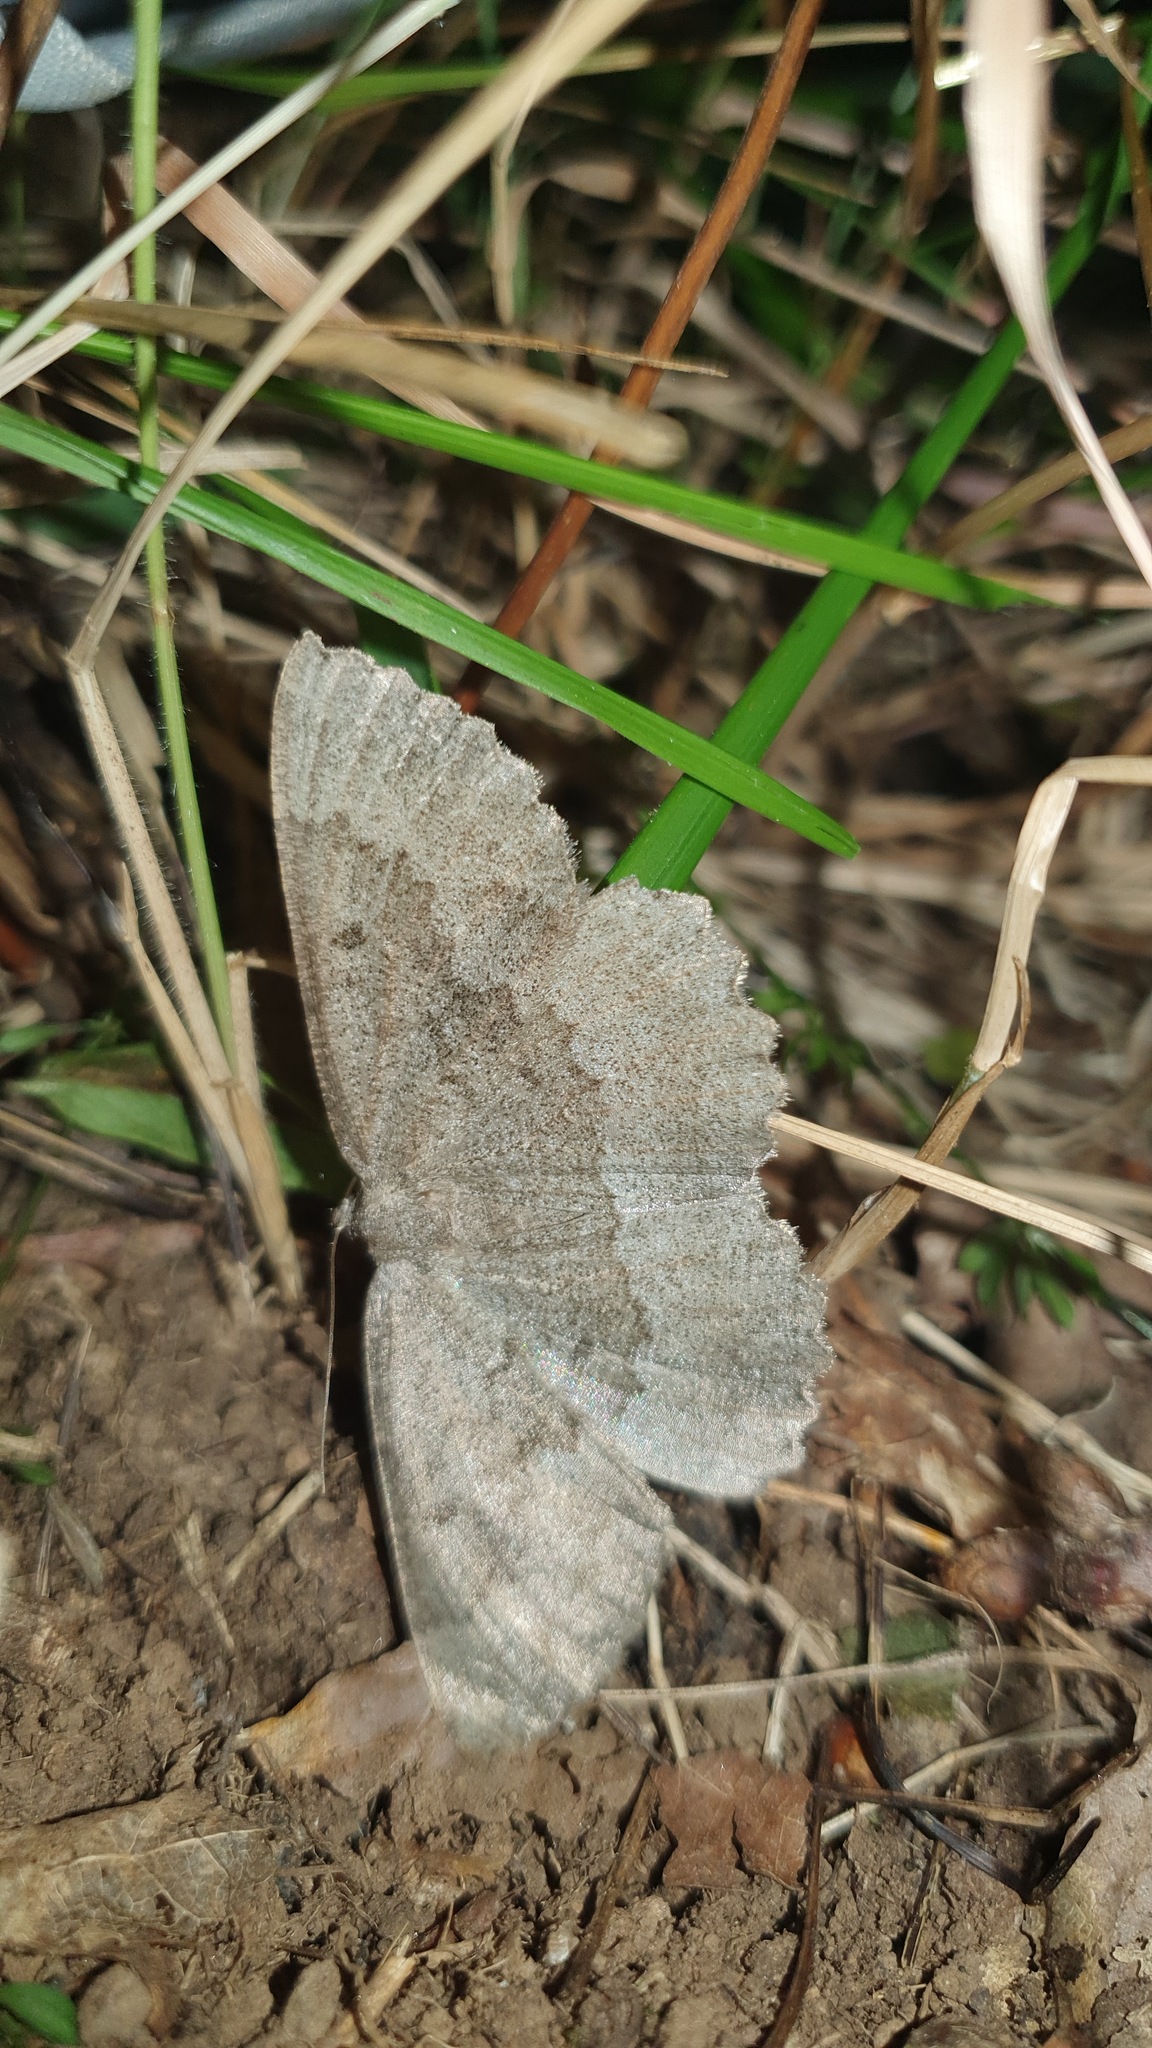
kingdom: Animalia
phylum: Arthropoda
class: Insecta
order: Lepidoptera
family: Geometridae
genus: Gnophos
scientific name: Gnophos furvata
